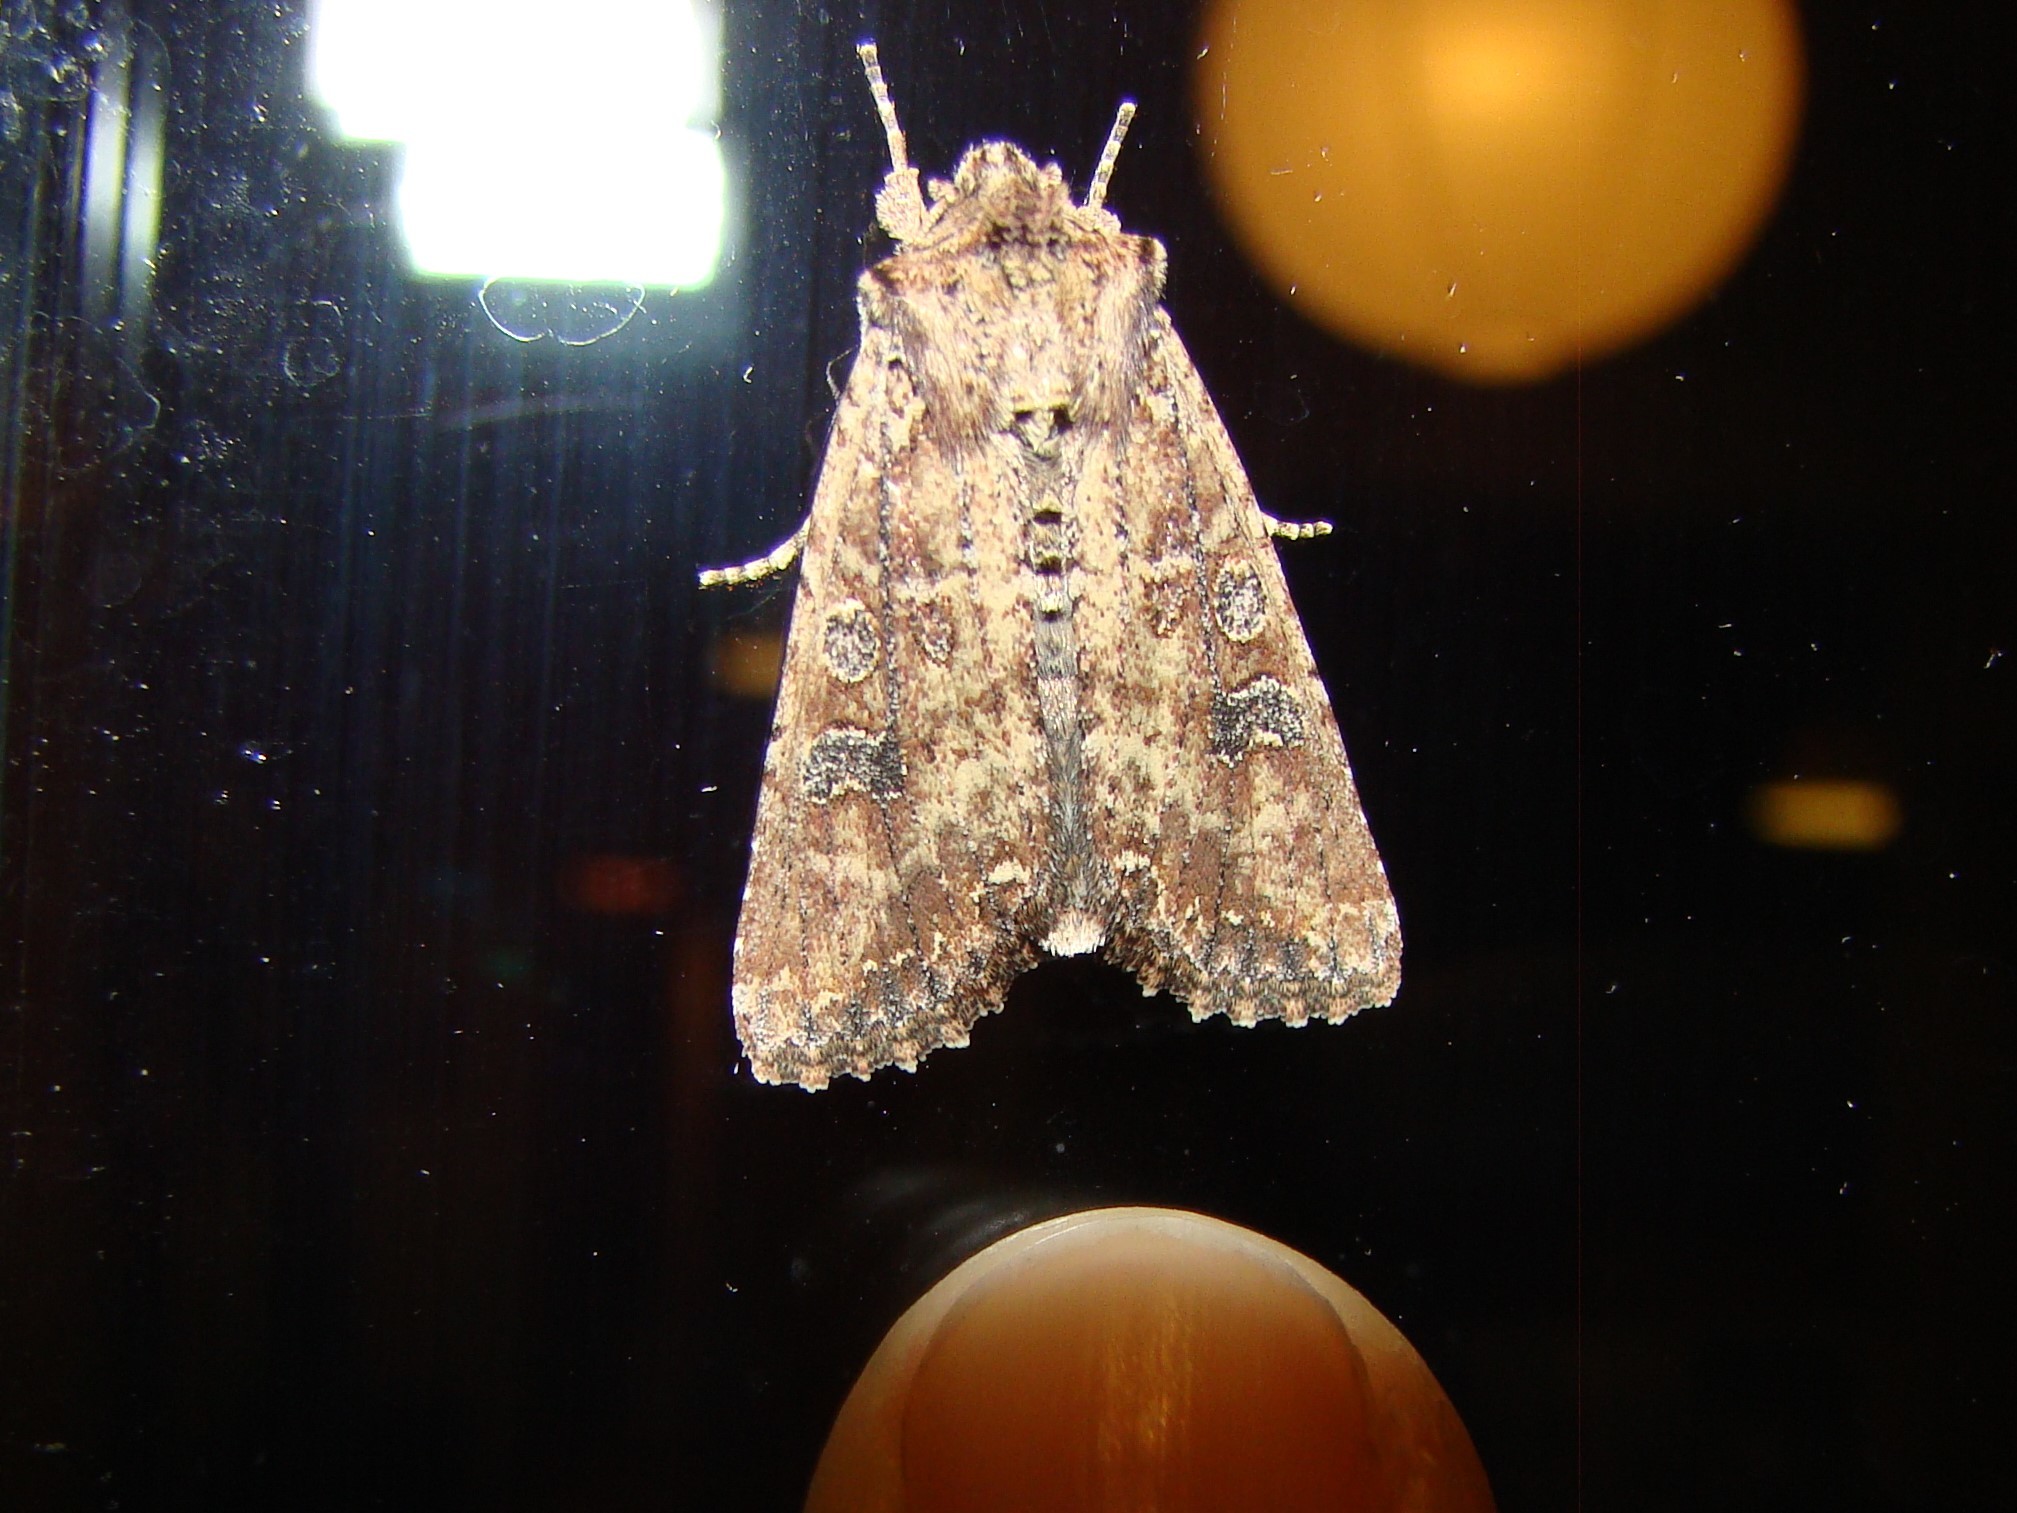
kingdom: Animalia
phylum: Arthropoda
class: Insecta
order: Lepidoptera
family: Noctuidae
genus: Ichneutica
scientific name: Ichneutica morosa
